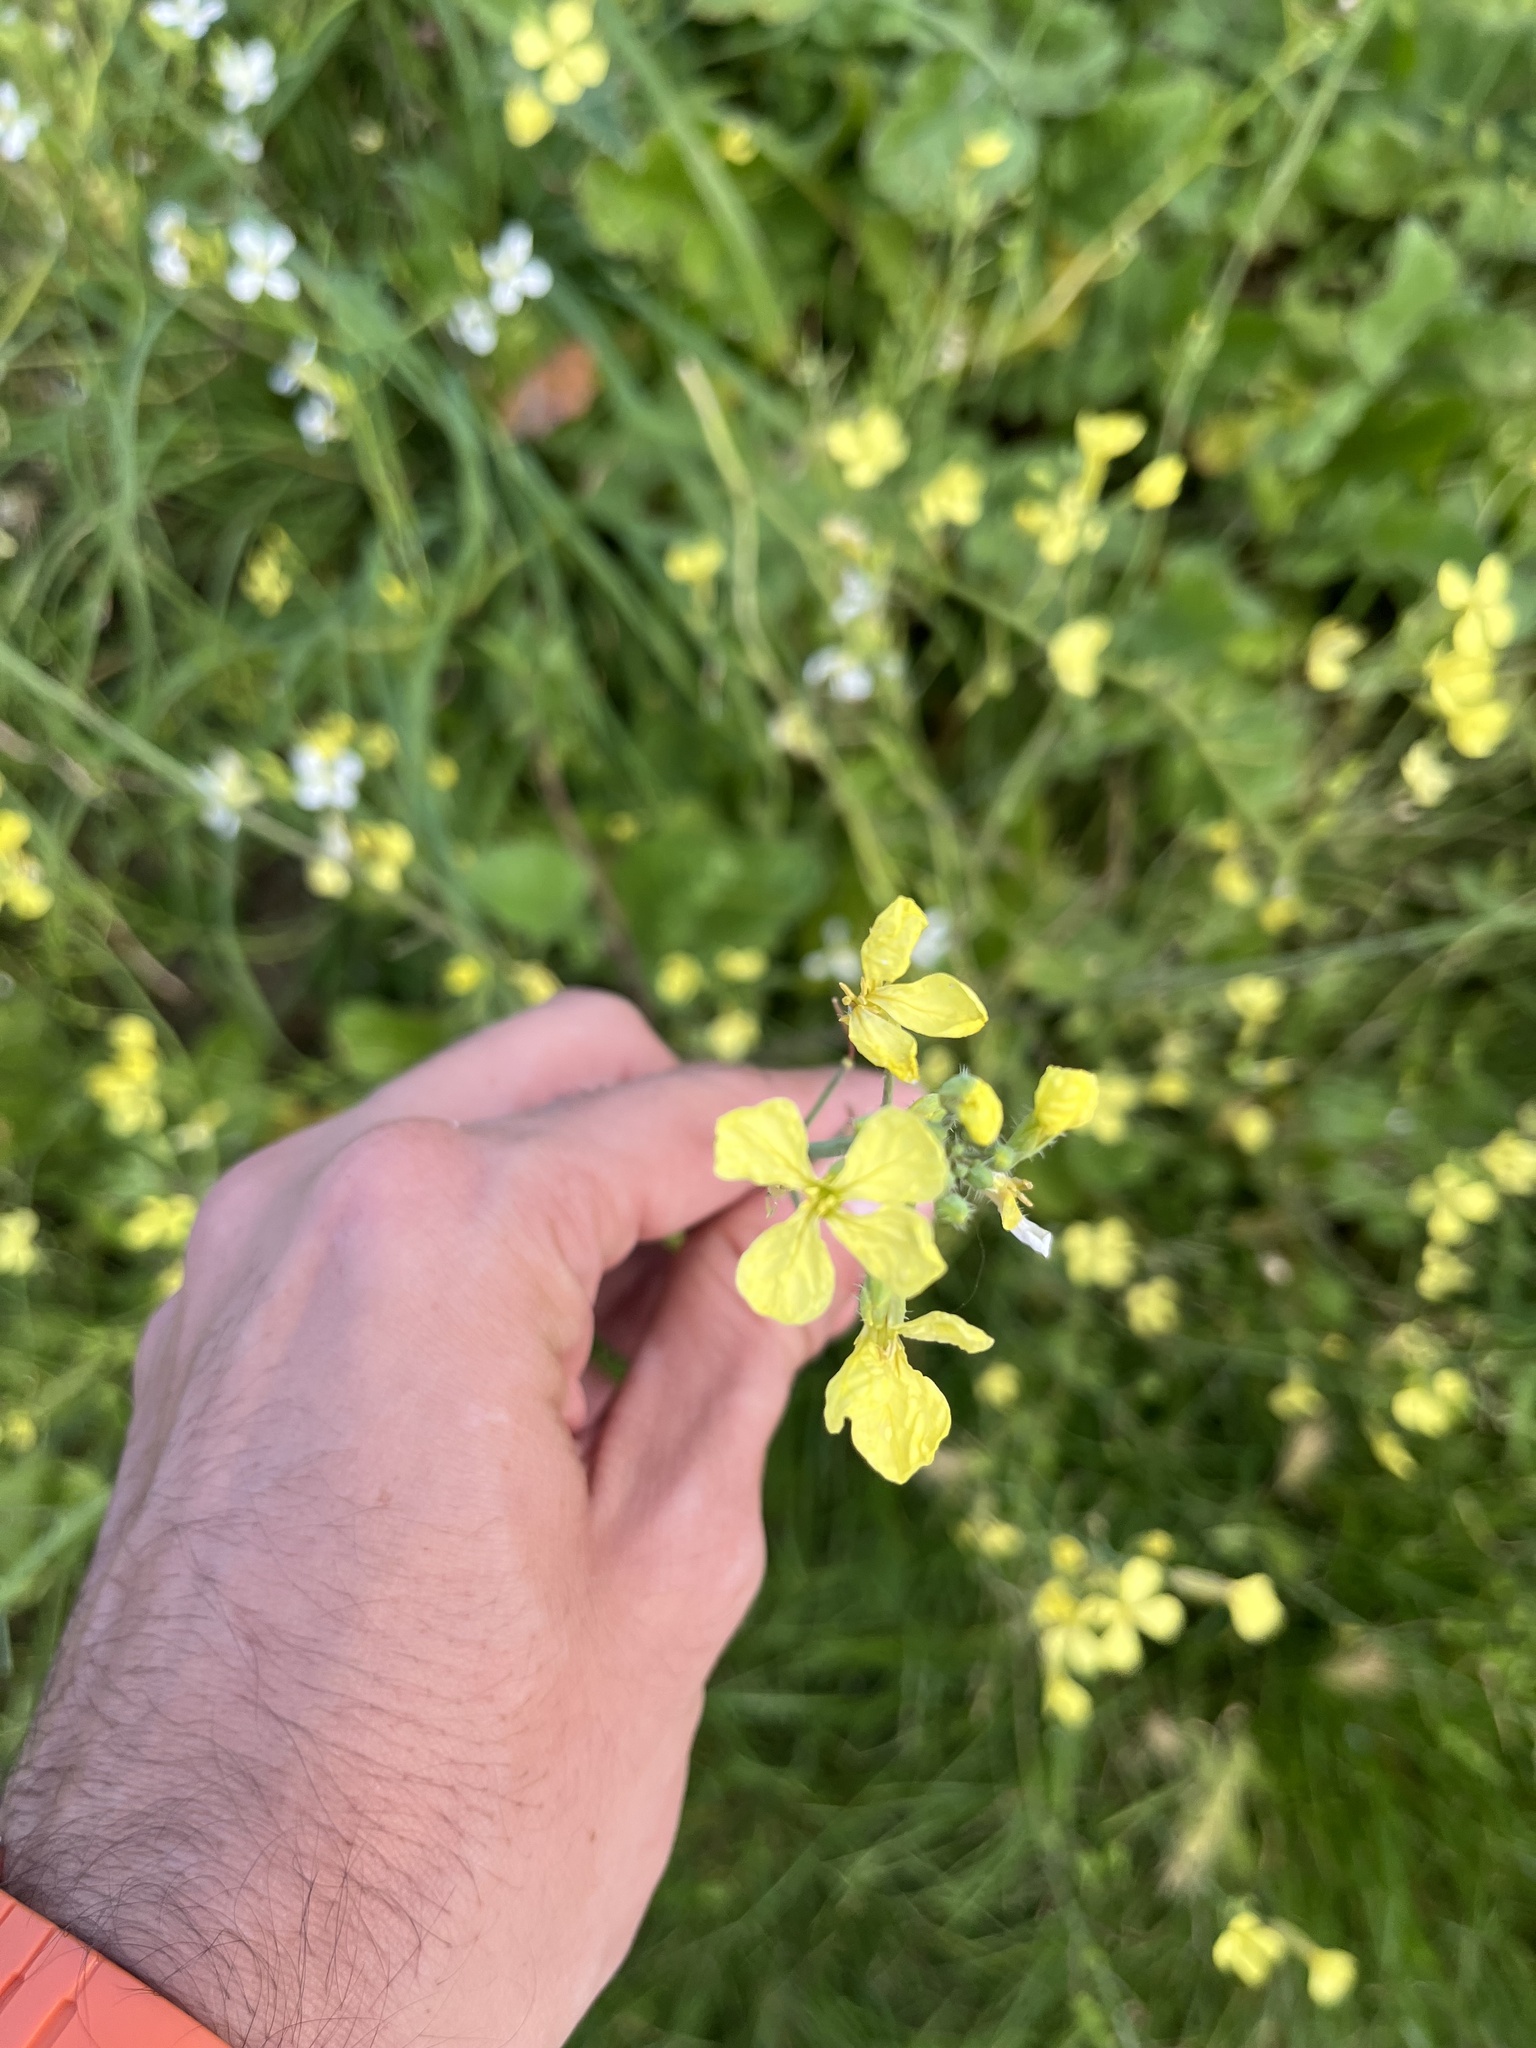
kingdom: Plantae
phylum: Tracheophyta
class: Magnoliopsida
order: Brassicales
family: Brassicaceae
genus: Raphanus
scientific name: Raphanus raphanistrum
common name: Wild radish
